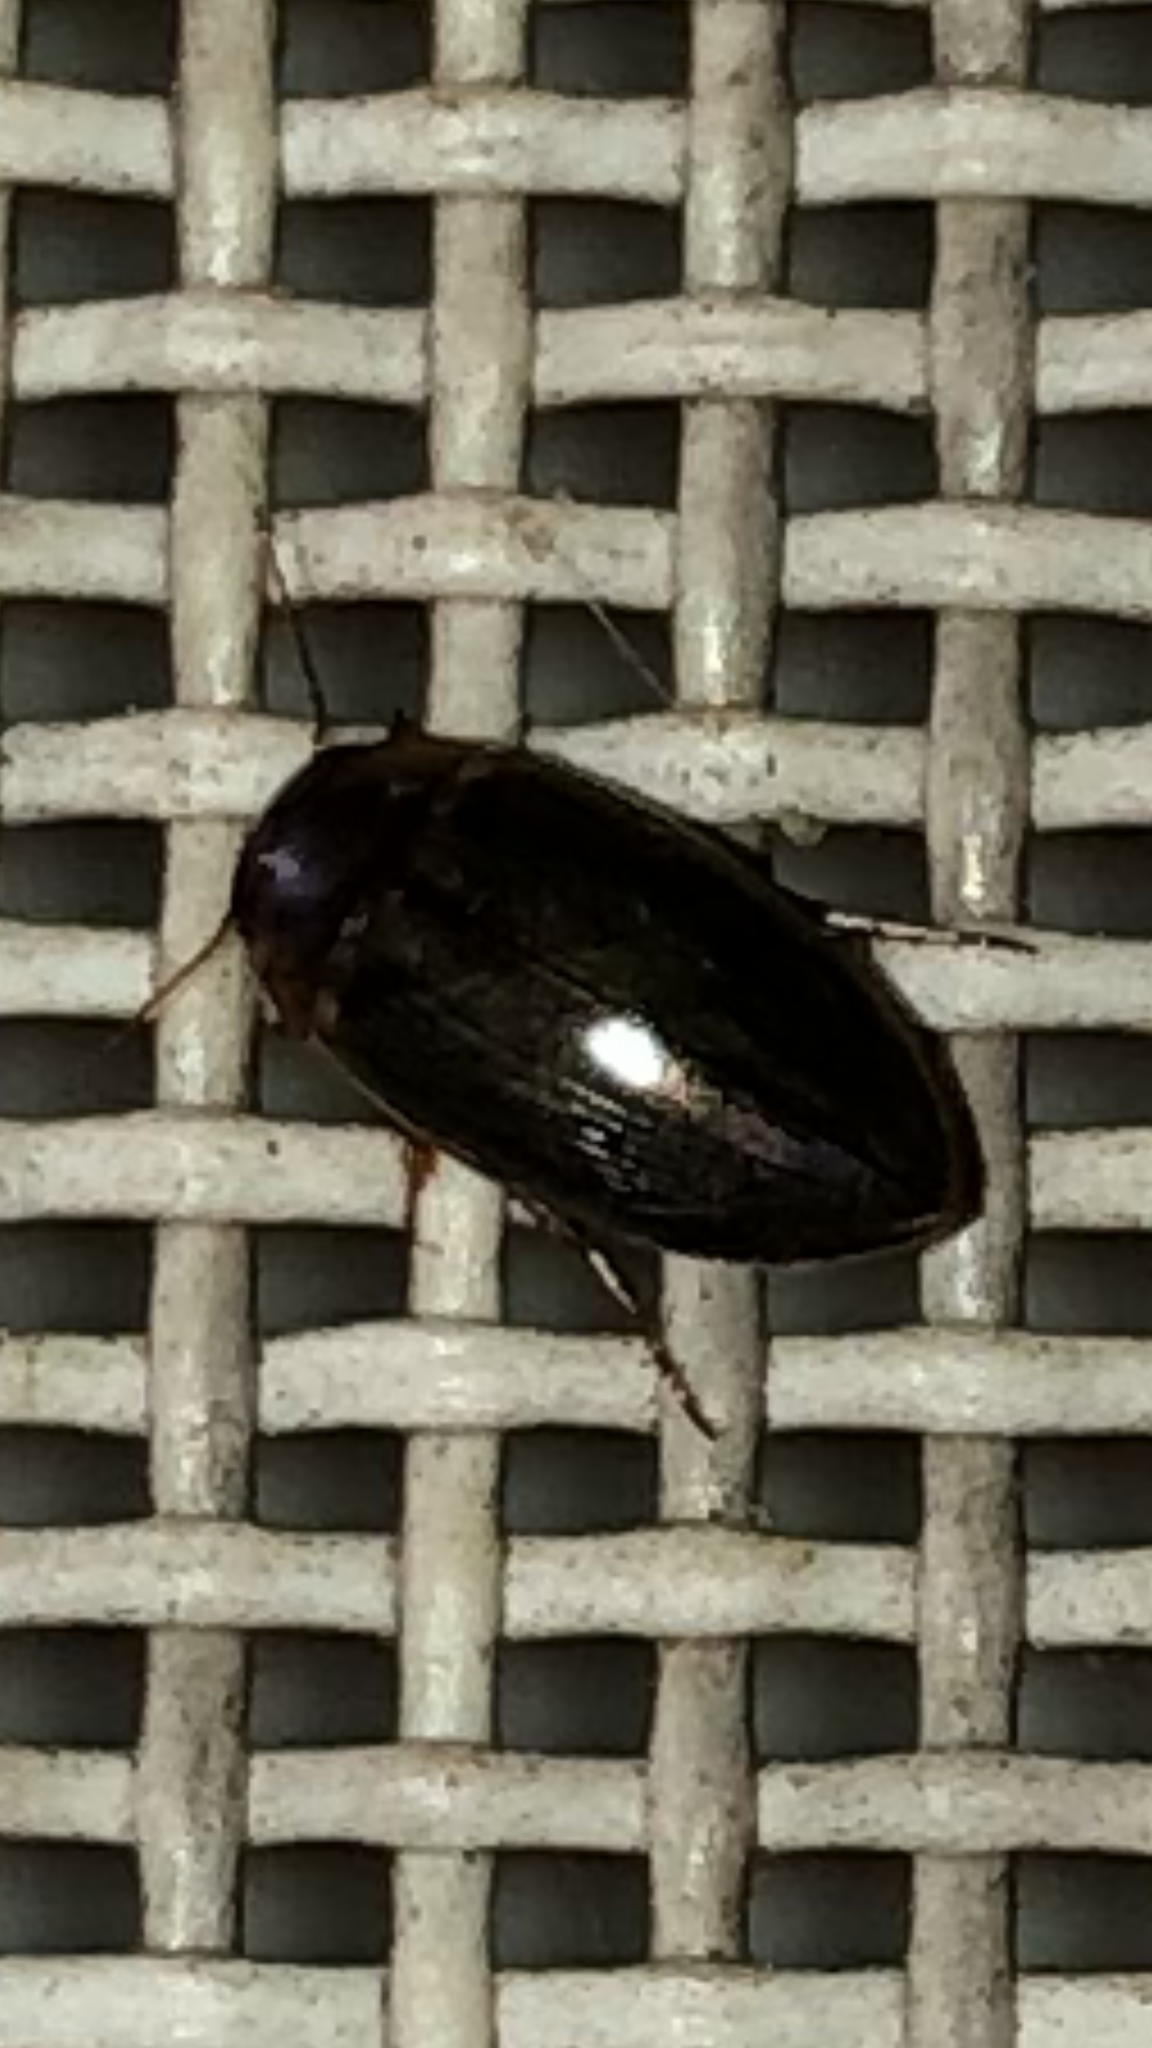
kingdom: Animalia
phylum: Arthropoda
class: Insecta
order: Coleoptera
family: Dytiscidae
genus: Copelatus
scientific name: Copelatus chevrolati
